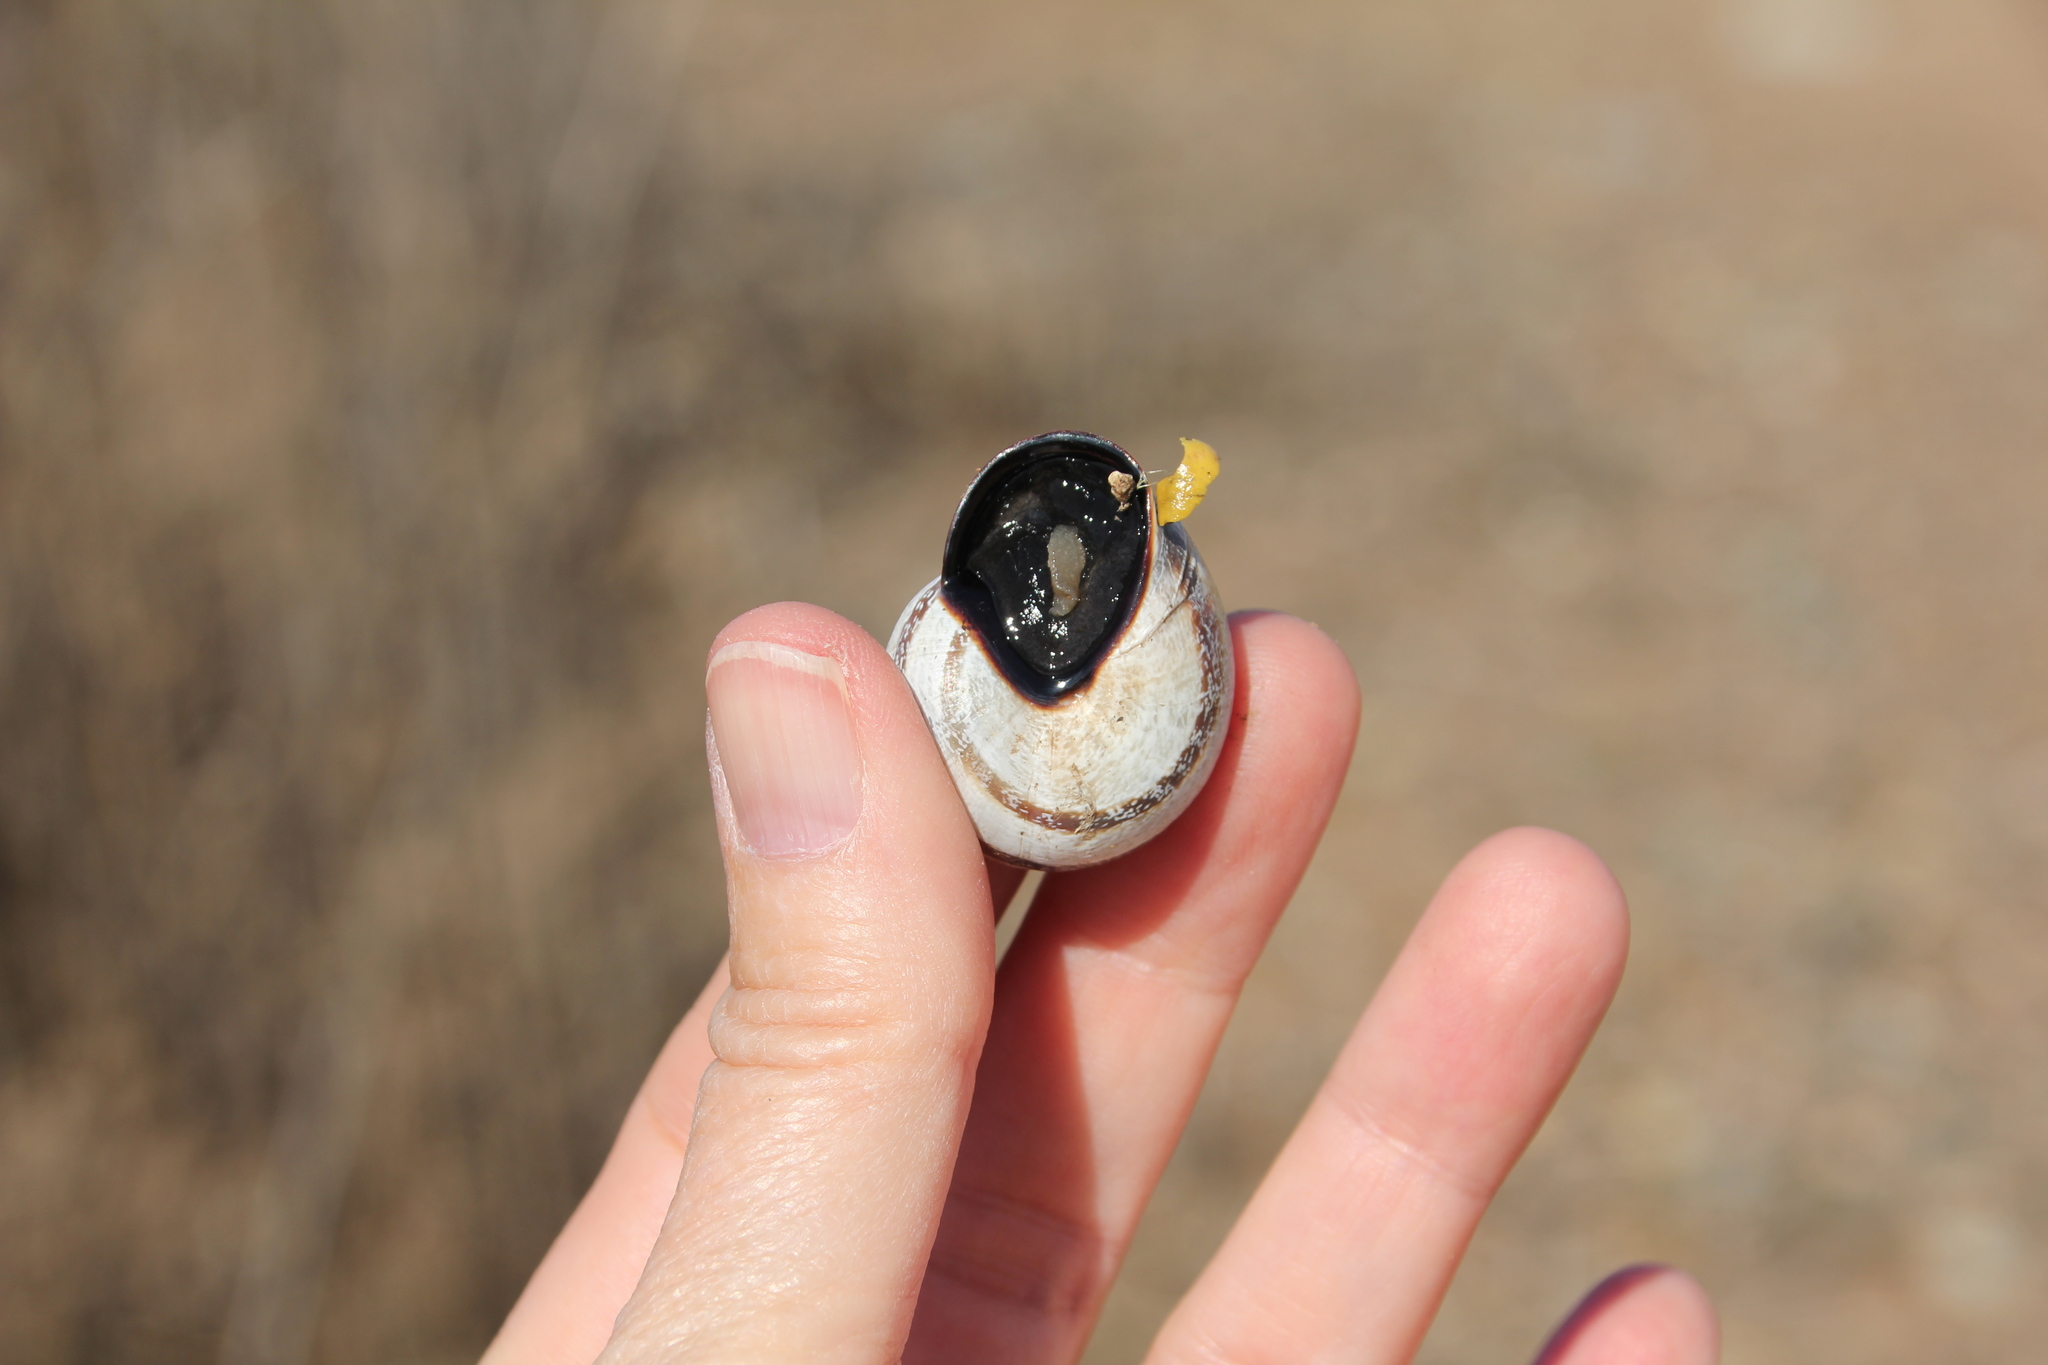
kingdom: Animalia
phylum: Mollusca
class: Gastropoda
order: Stylommatophora
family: Helicidae
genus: Otala
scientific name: Otala lactea
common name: Milk snail
